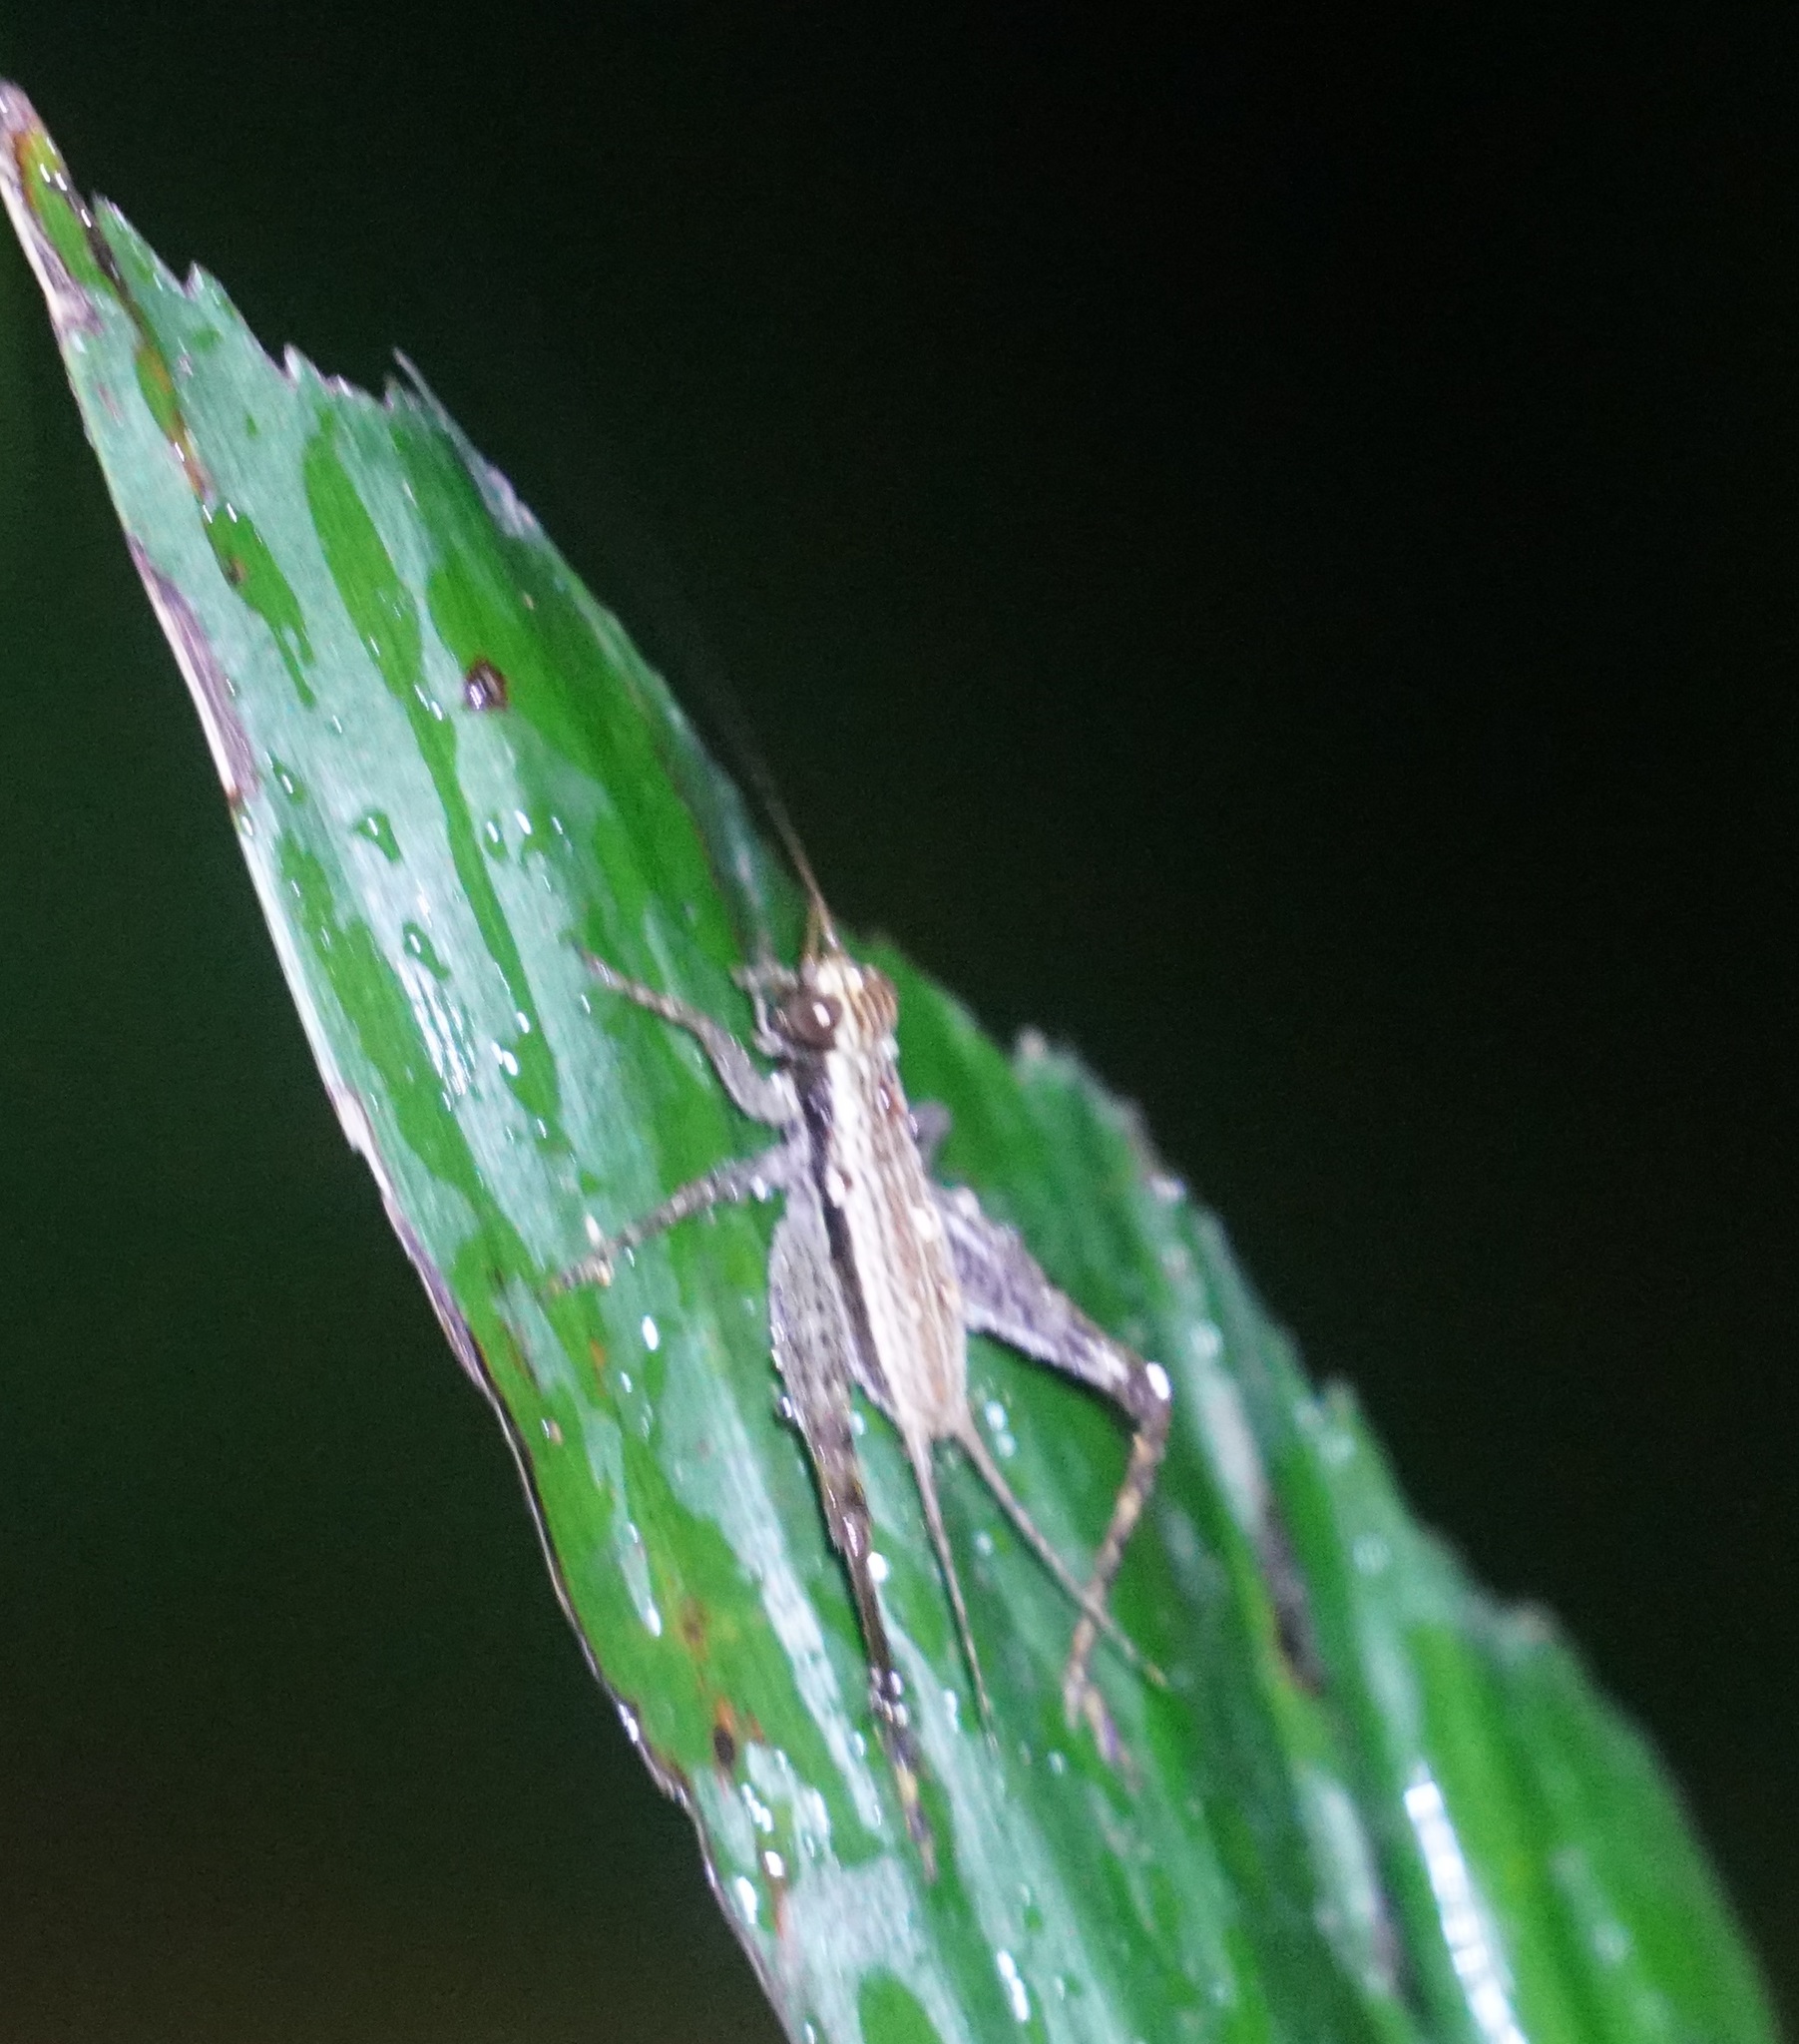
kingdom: Animalia
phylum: Arthropoda
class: Insecta
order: Orthoptera
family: Gryllidae
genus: Cardiodactylus
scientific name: Cardiodactylus novaeguineae
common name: Sad cricket
